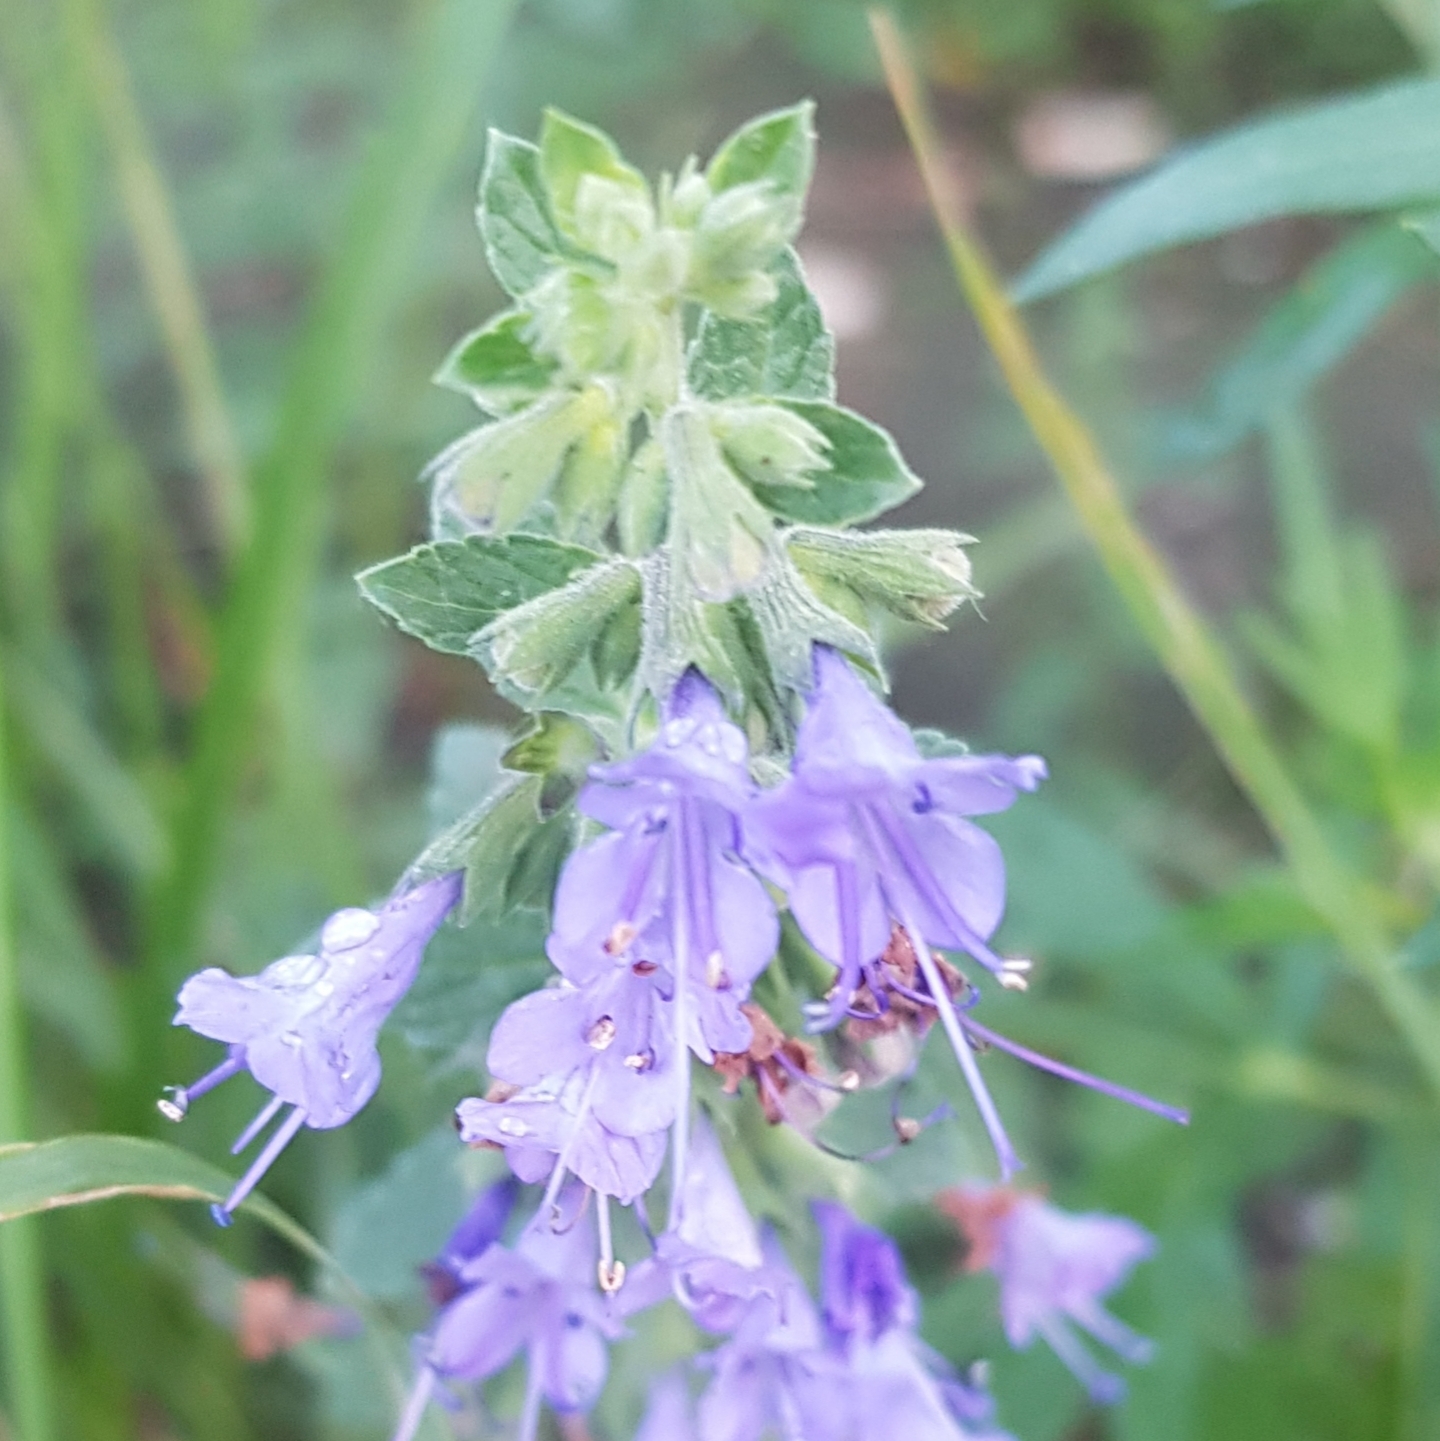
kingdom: Plantae
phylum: Tracheophyta
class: Magnoliopsida
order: Lamiales
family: Lamiaceae
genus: Nepeta
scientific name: Nepeta lophanthus
